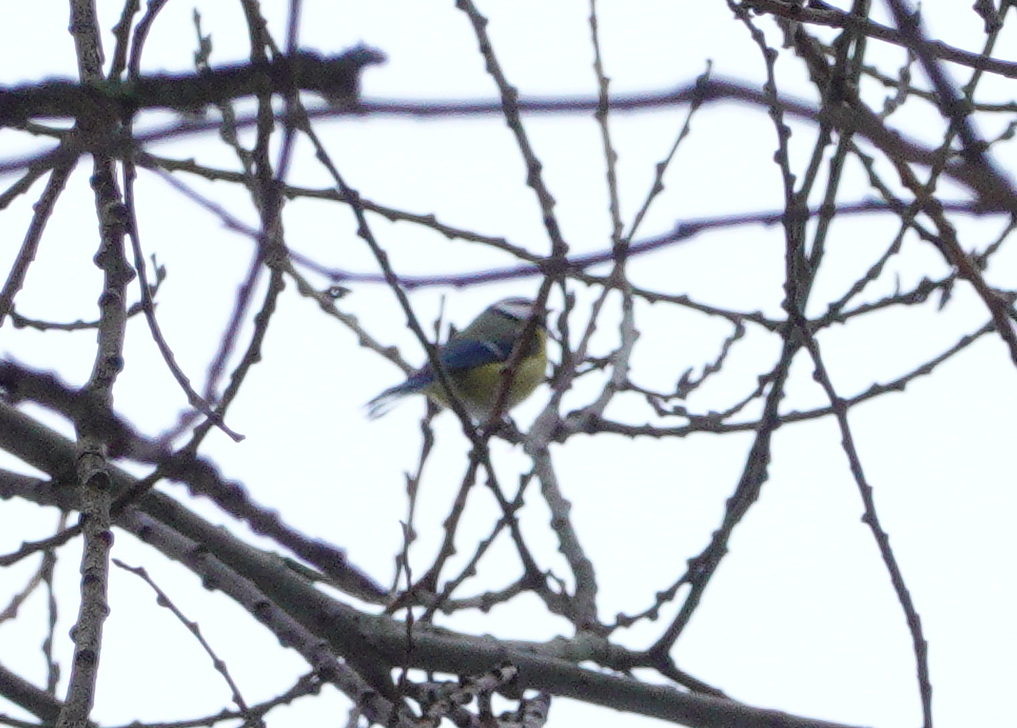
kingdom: Animalia
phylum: Chordata
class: Aves
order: Passeriformes
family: Paridae
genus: Cyanistes
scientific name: Cyanistes caeruleus
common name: Eurasian blue tit
